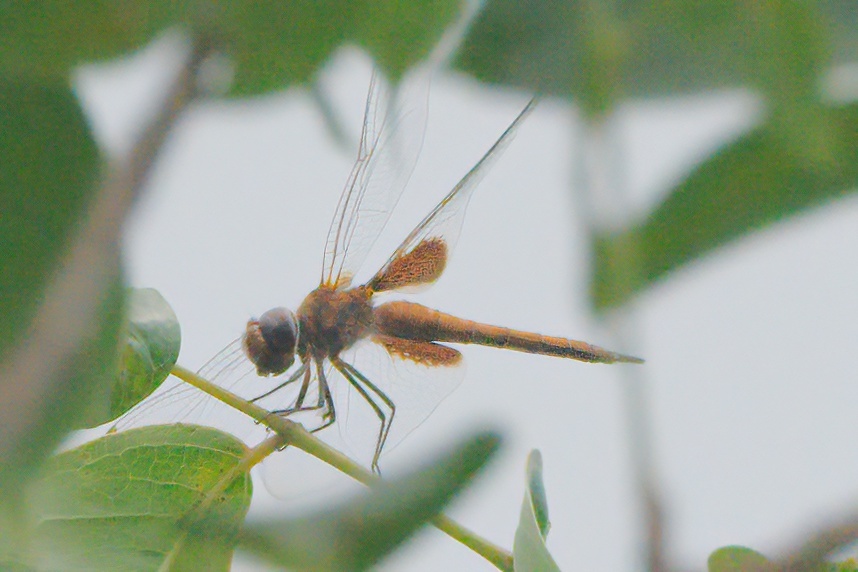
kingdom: Animalia
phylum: Arthropoda
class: Insecta
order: Odonata
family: Libellulidae
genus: Tramea
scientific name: Tramea abdominalis
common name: Vermilion saddlebags
